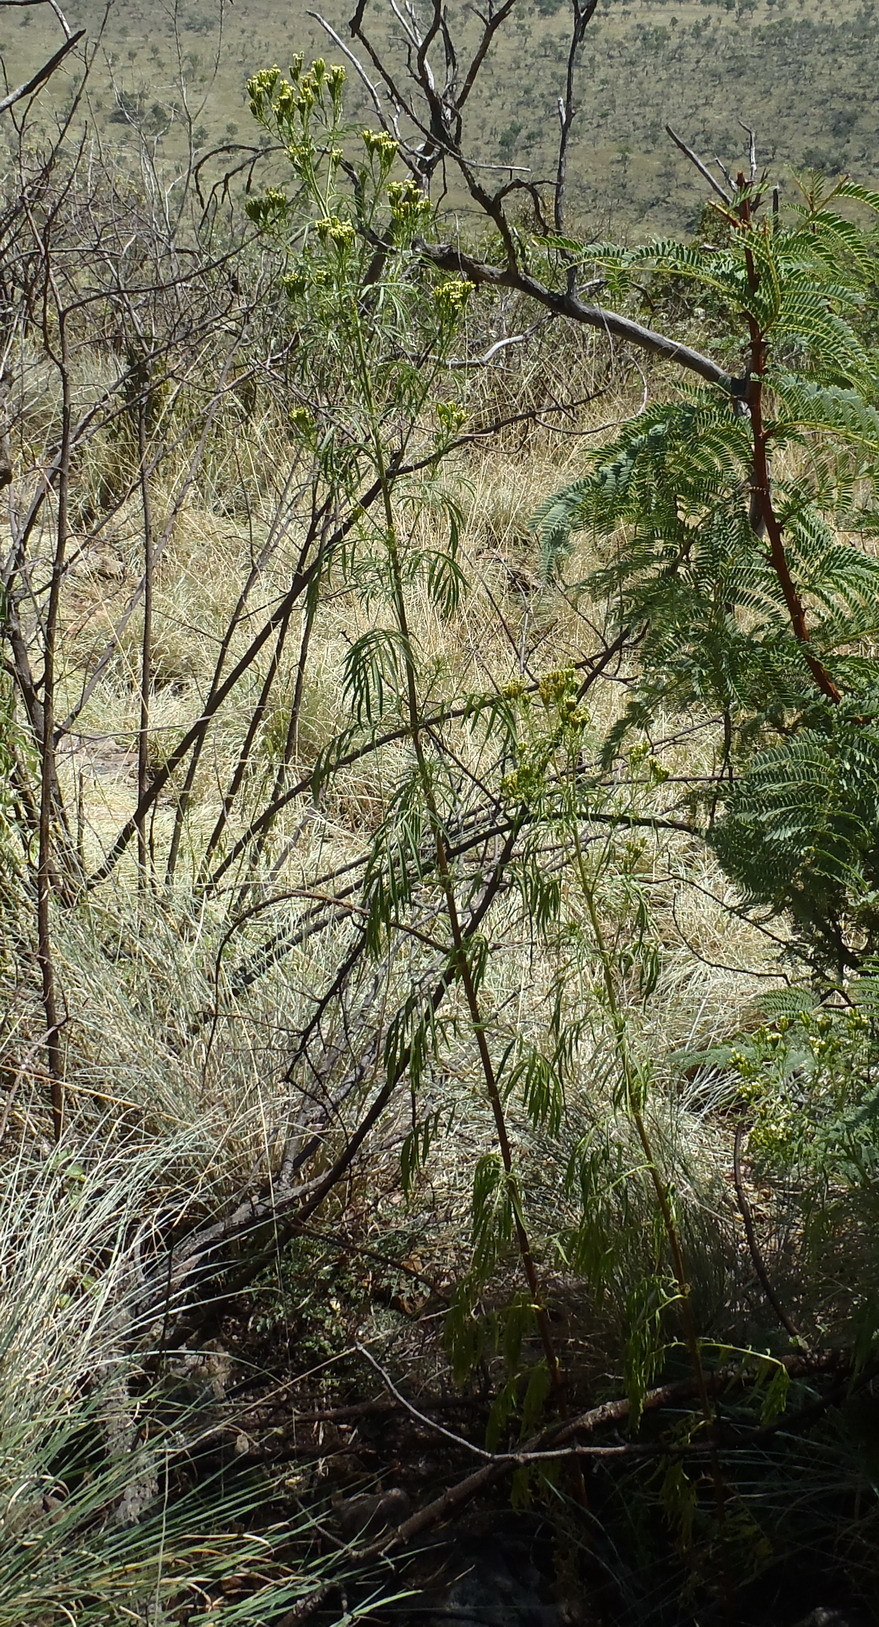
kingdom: Plantae
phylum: Tracheophyta
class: Magnoliopsida
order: Asterales
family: Asteraceae
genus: Tagetes
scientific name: Tagetes minuta
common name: Muster john henry
